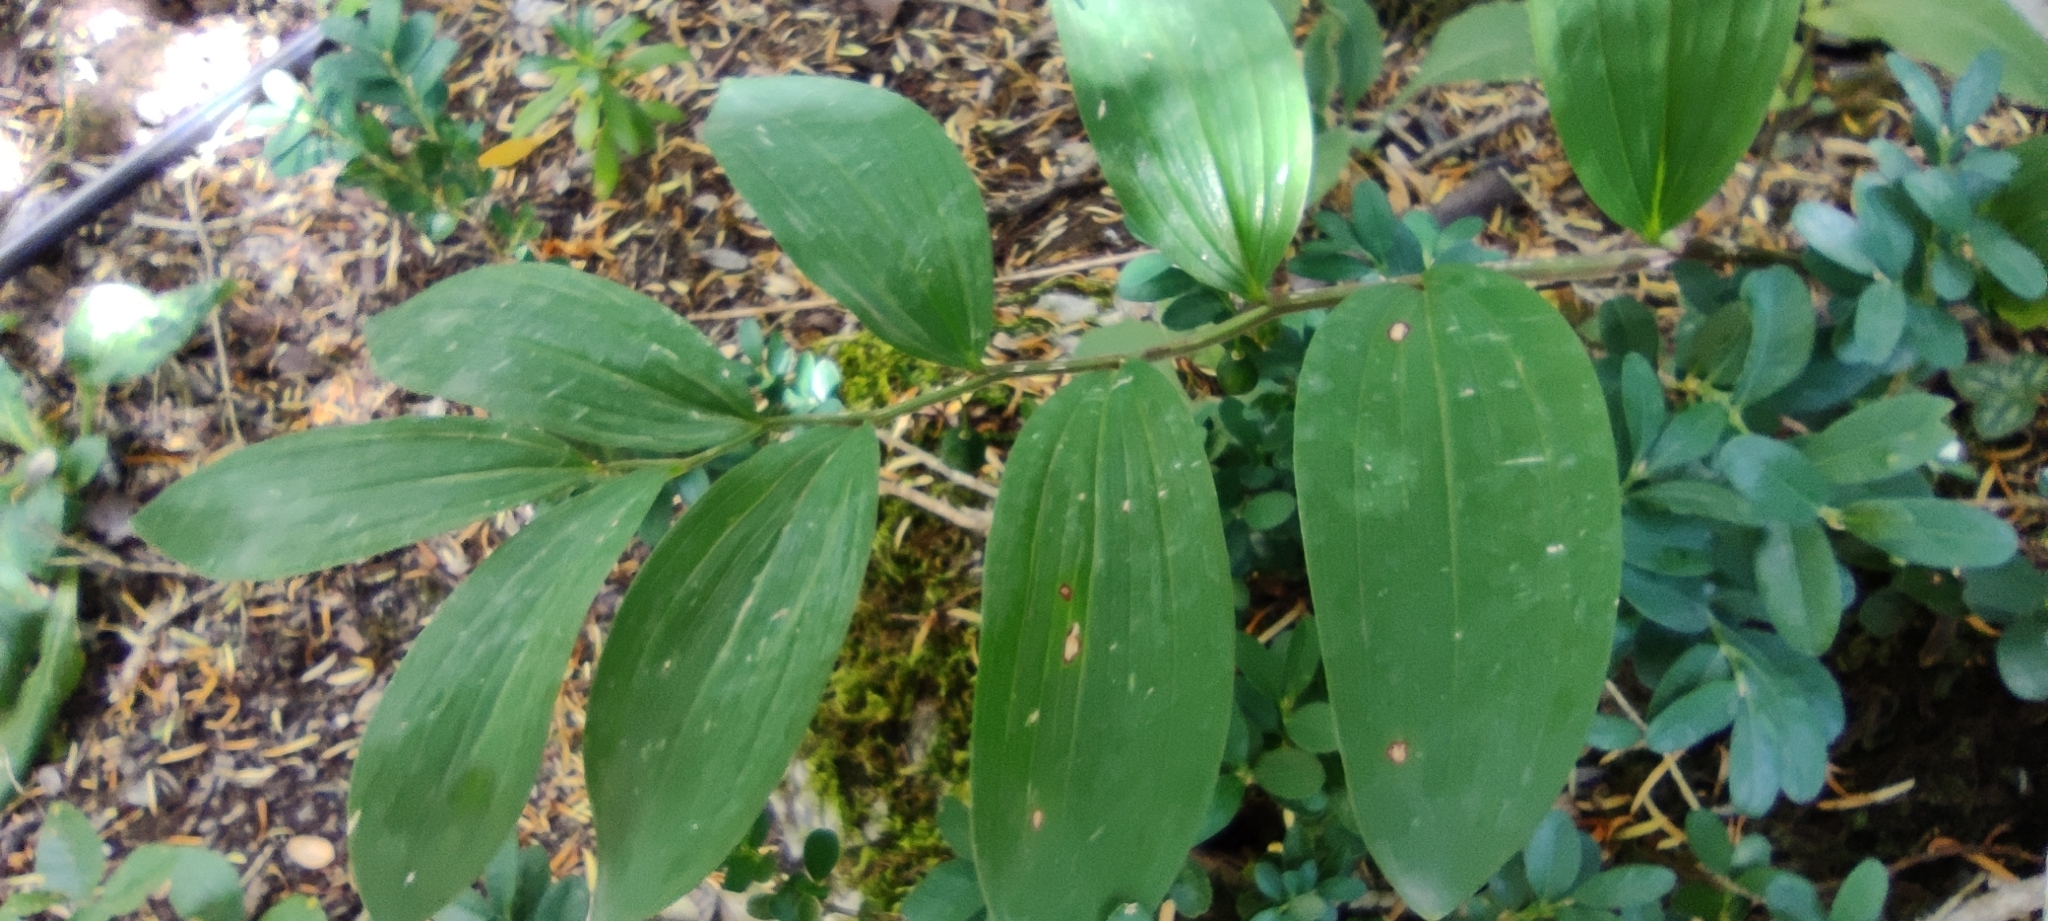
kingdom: Plantae
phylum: Tracheophyta
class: Liliopsida
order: Asparagales
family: Asparagaceae
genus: Polygonatum
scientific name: Polygonatum odoratum
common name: Angular solomon's-seal
